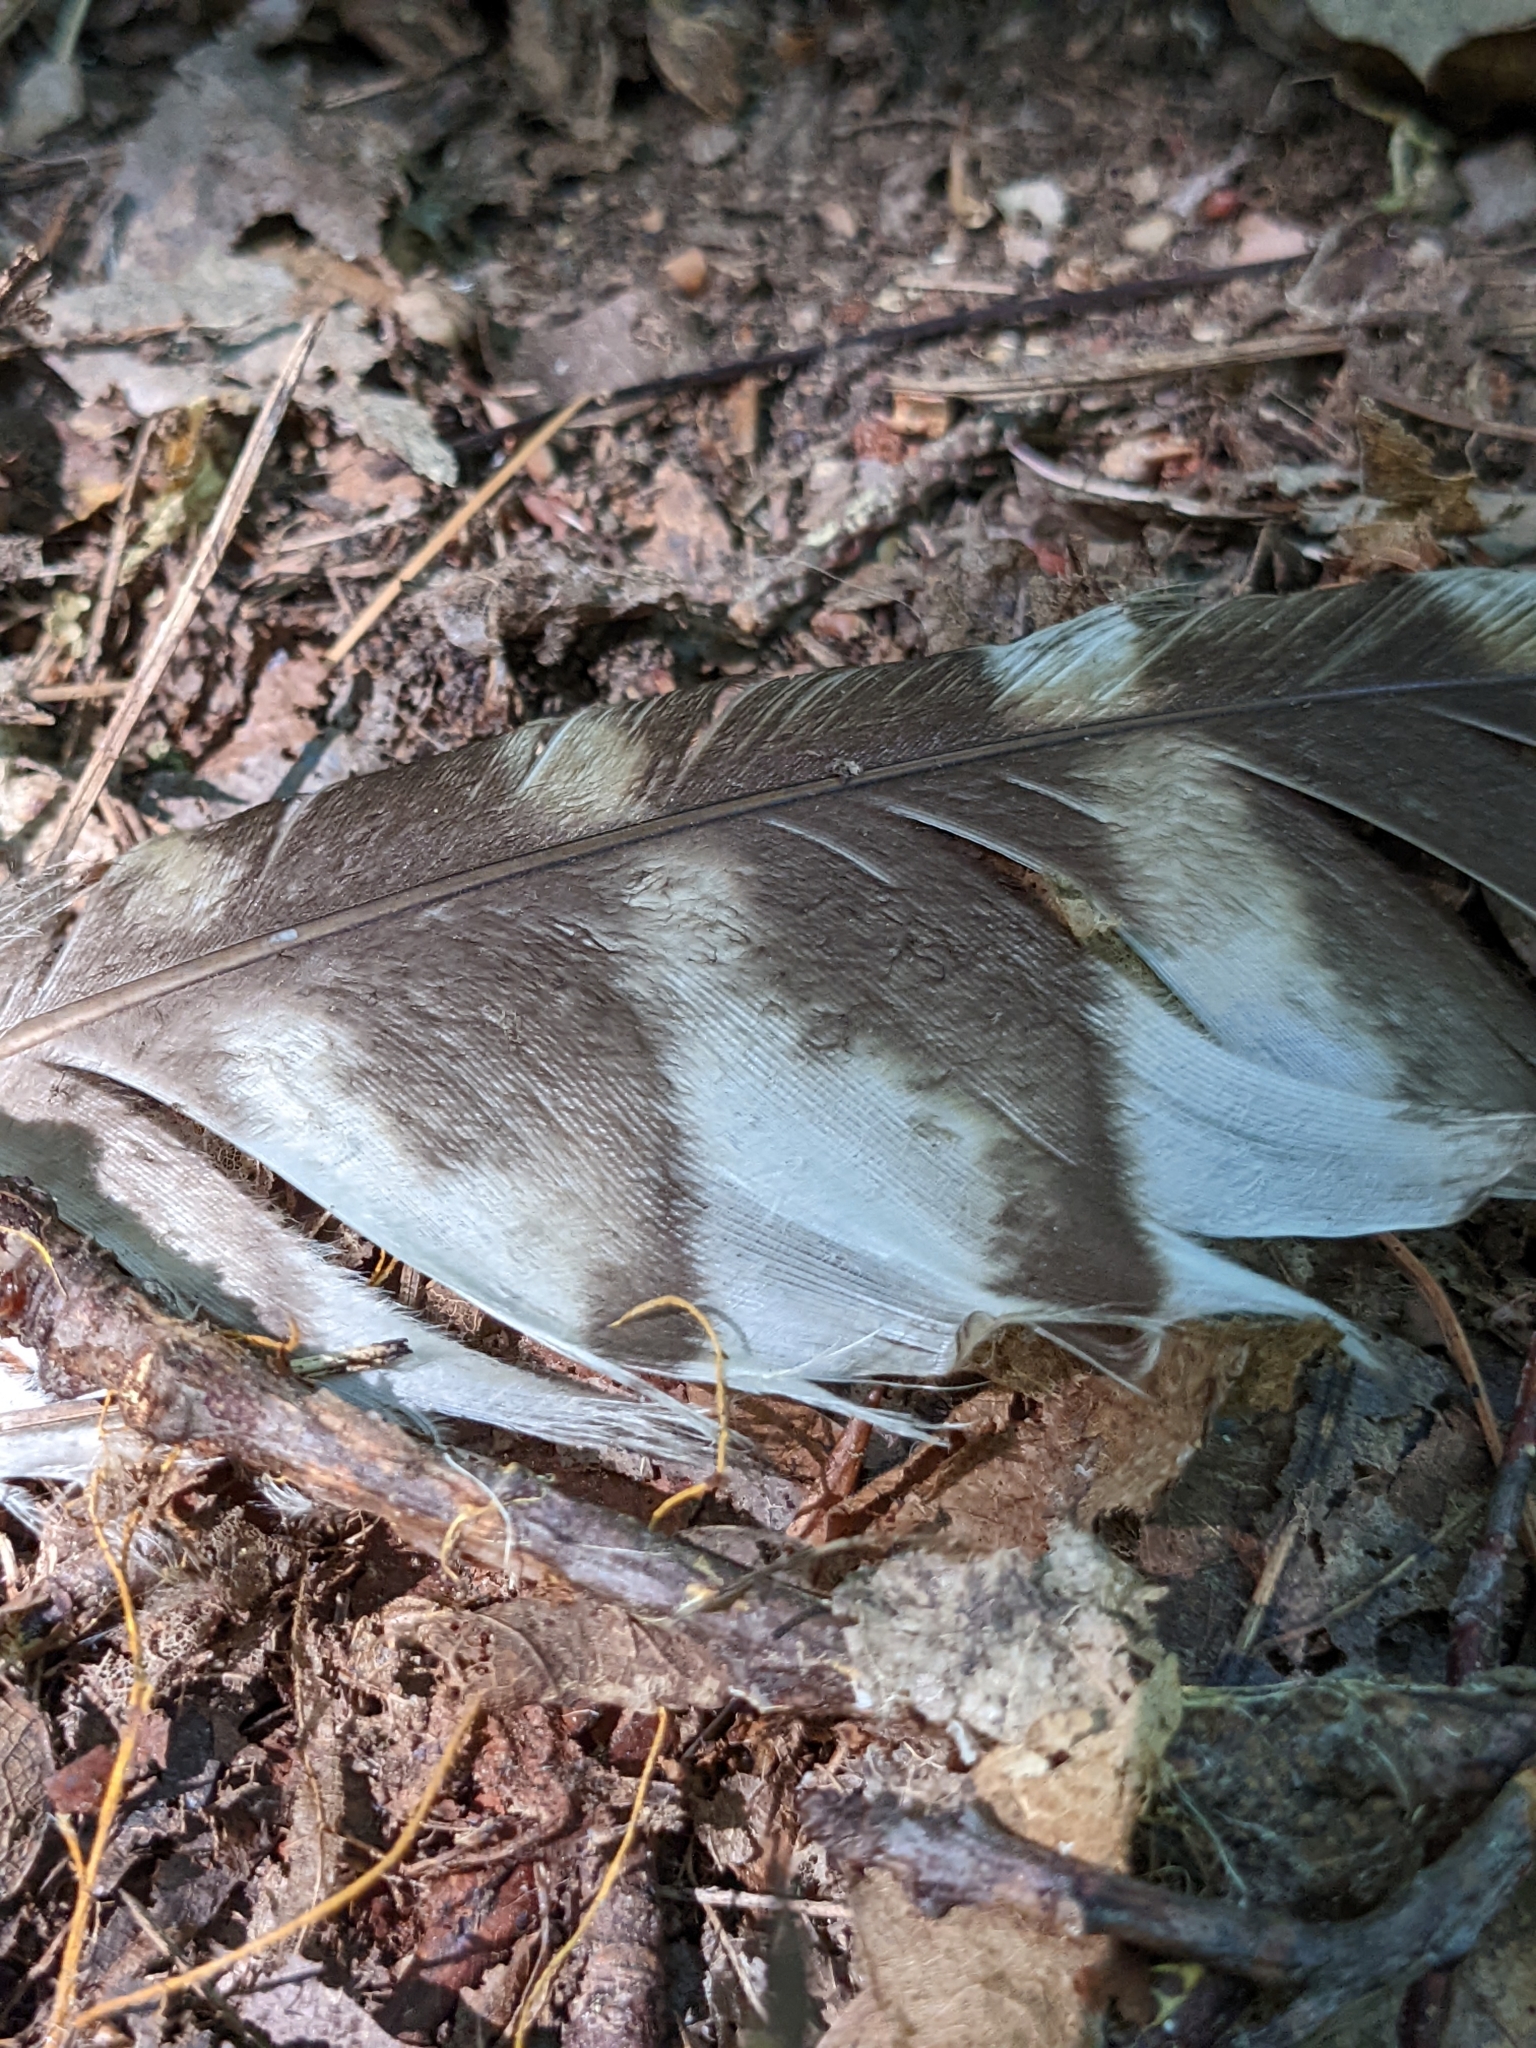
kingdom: Animalia
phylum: Chordata
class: Aves
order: Strigiformes
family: Strigidae
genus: Strix
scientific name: Strix varia
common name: Barred owl
